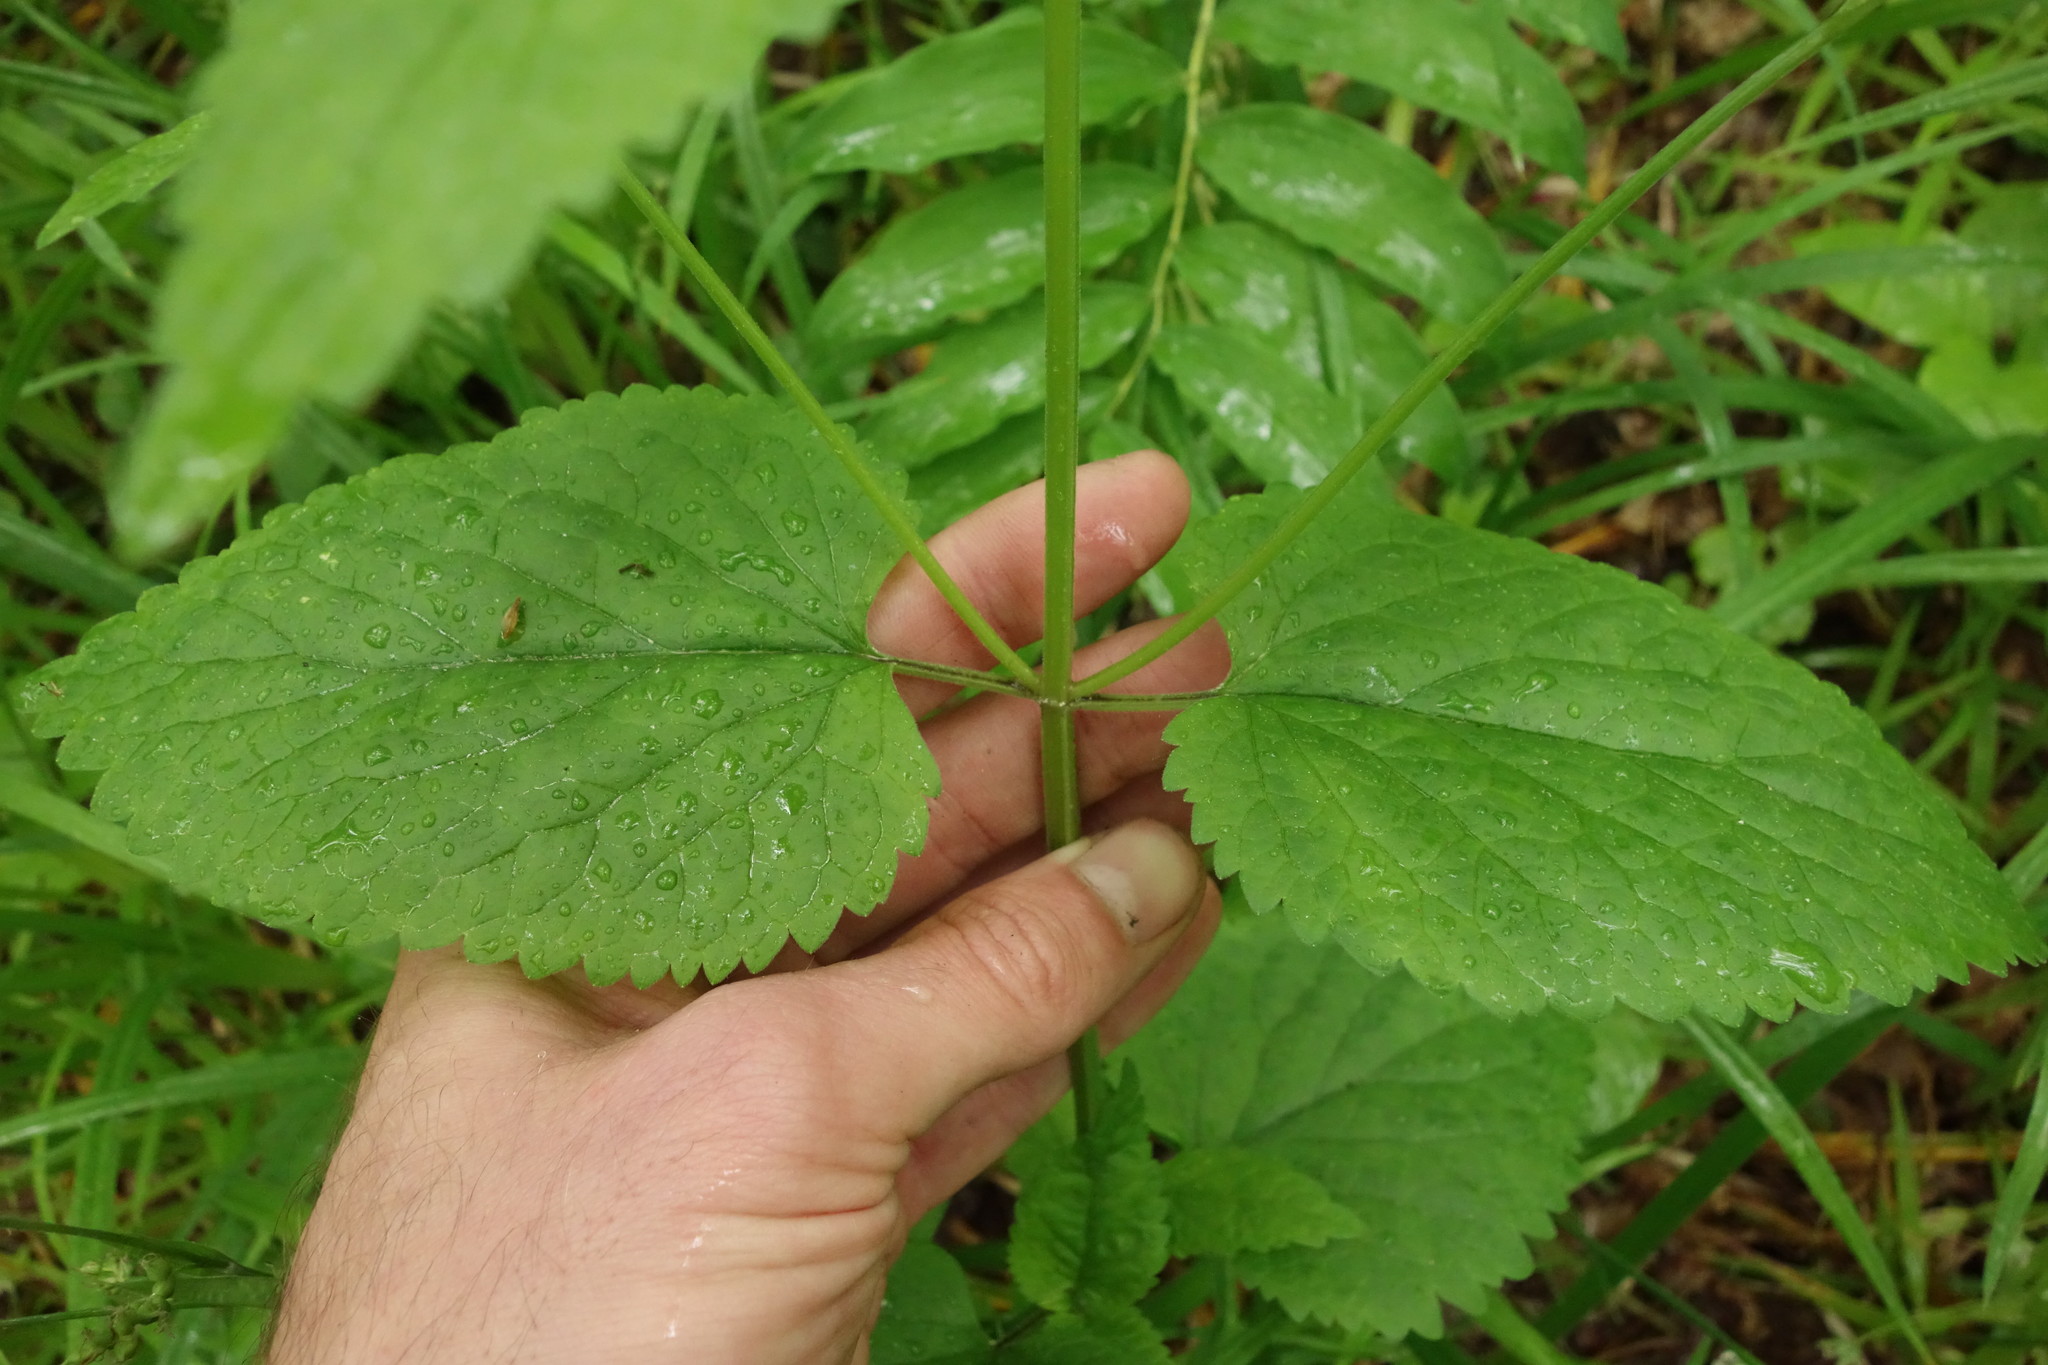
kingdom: Plantae
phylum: Tracheophyta
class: Magnoliopsida
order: Lamiales
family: Lamiaceae
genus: Scutellaria
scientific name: Scutellaria altissima
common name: Somerset skullcap
